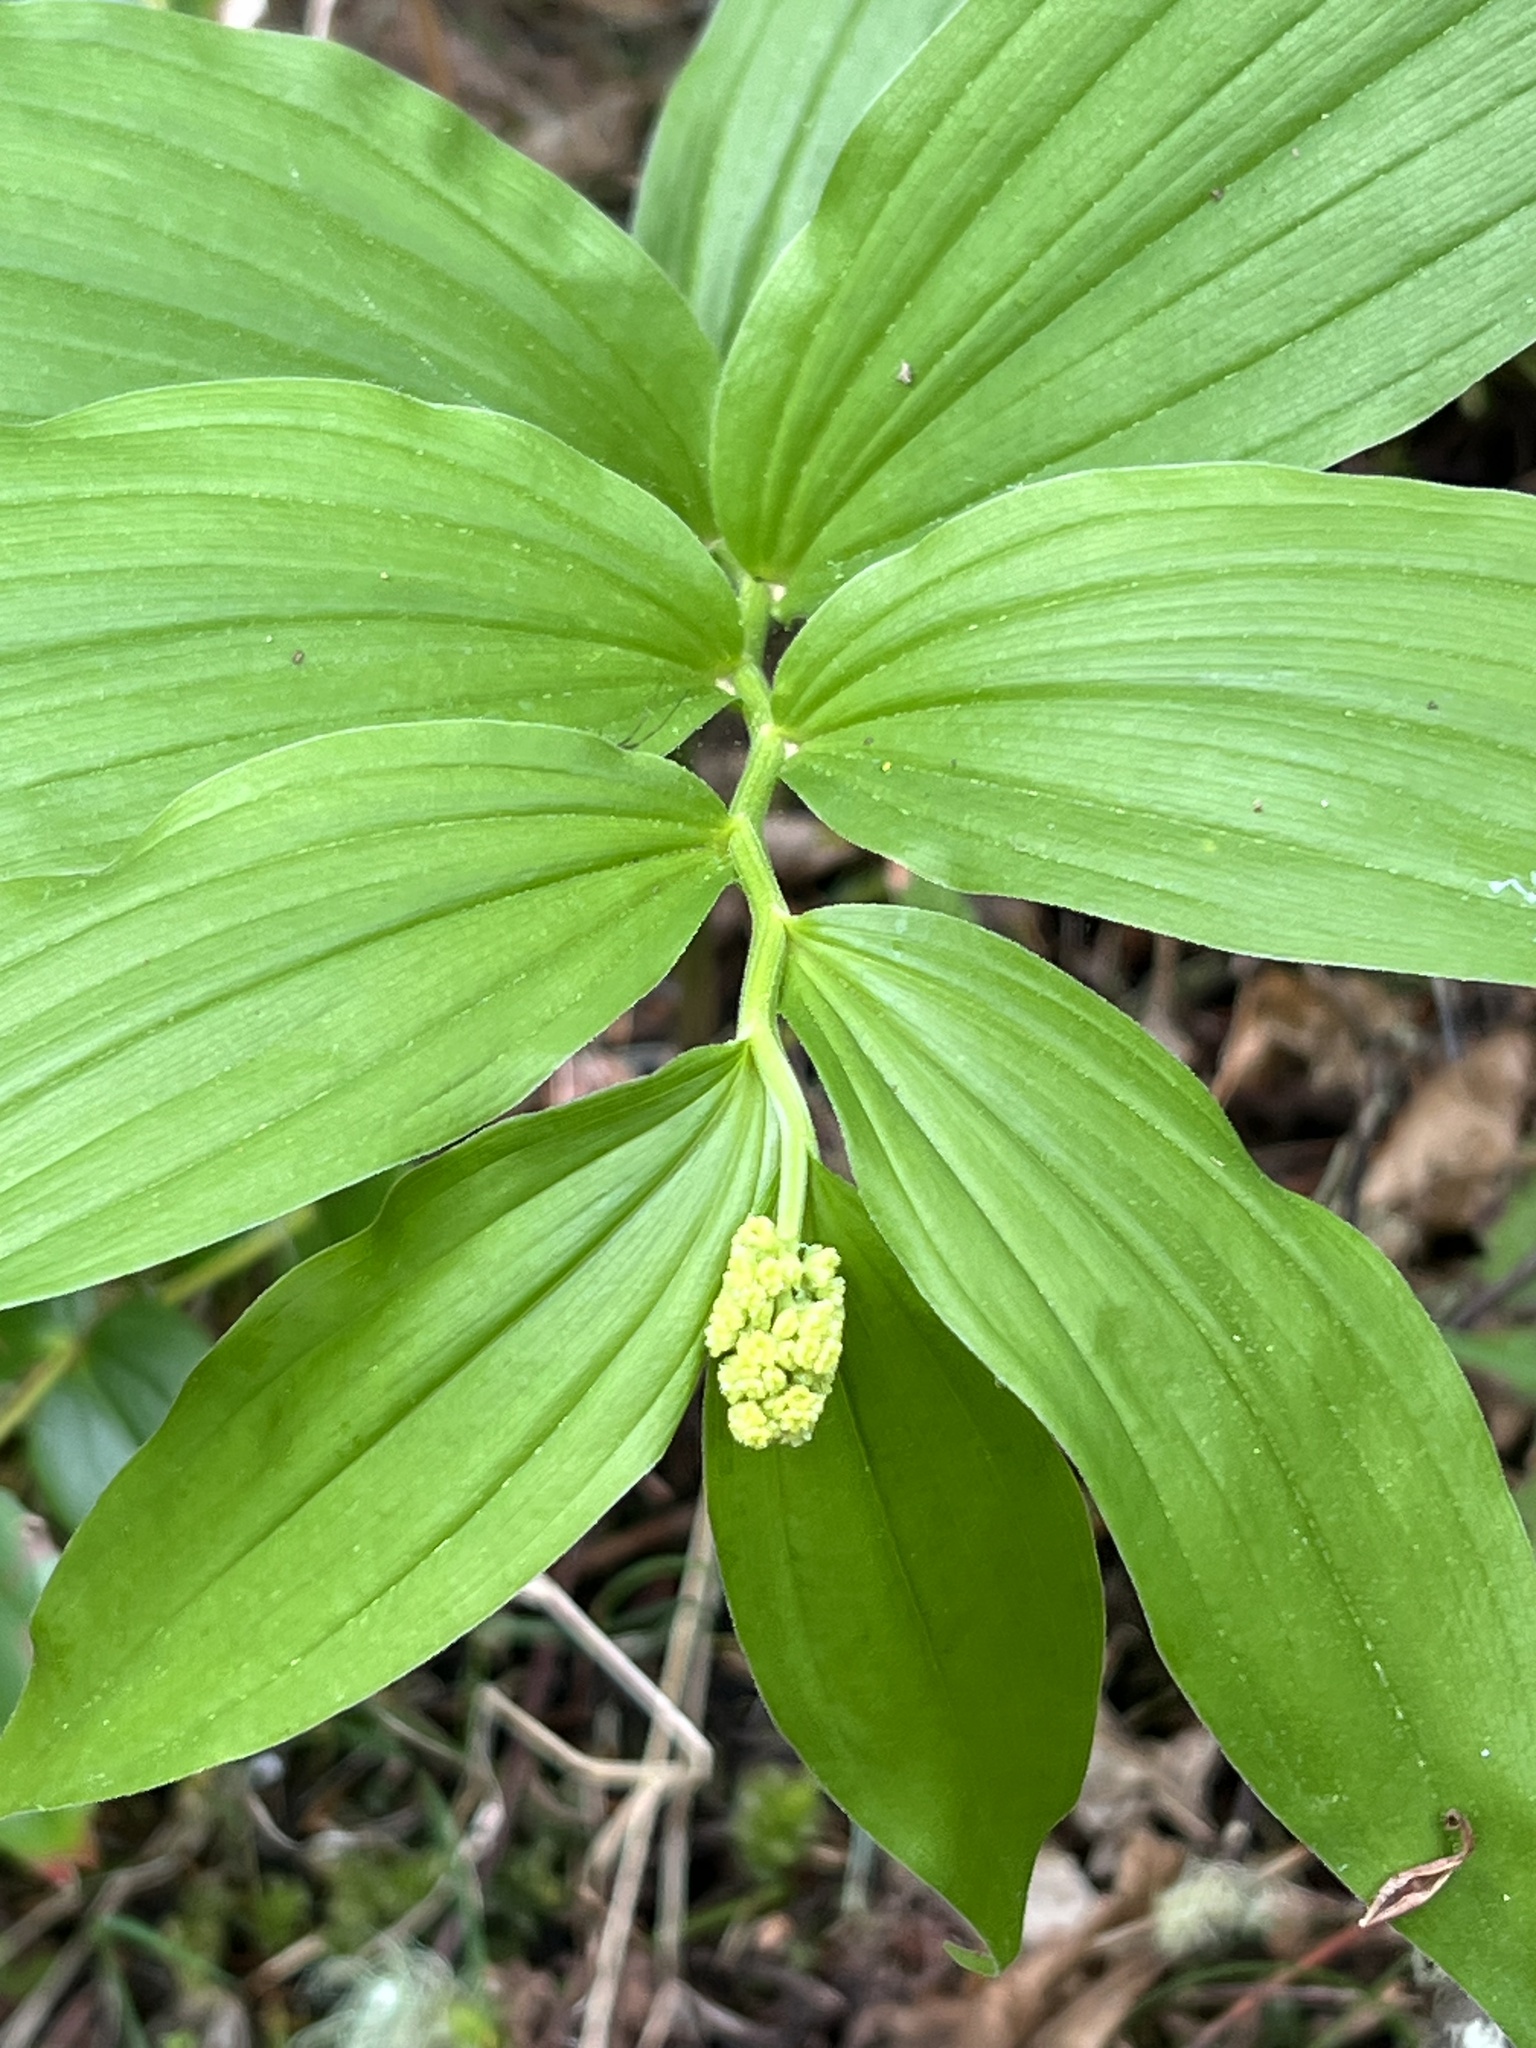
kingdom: Plantae
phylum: Tracheophyta
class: Liliopsida
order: Asparagales
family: Asparagaceae
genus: Maianthemum
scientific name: Maianthemum racemosum
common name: False spikenard
